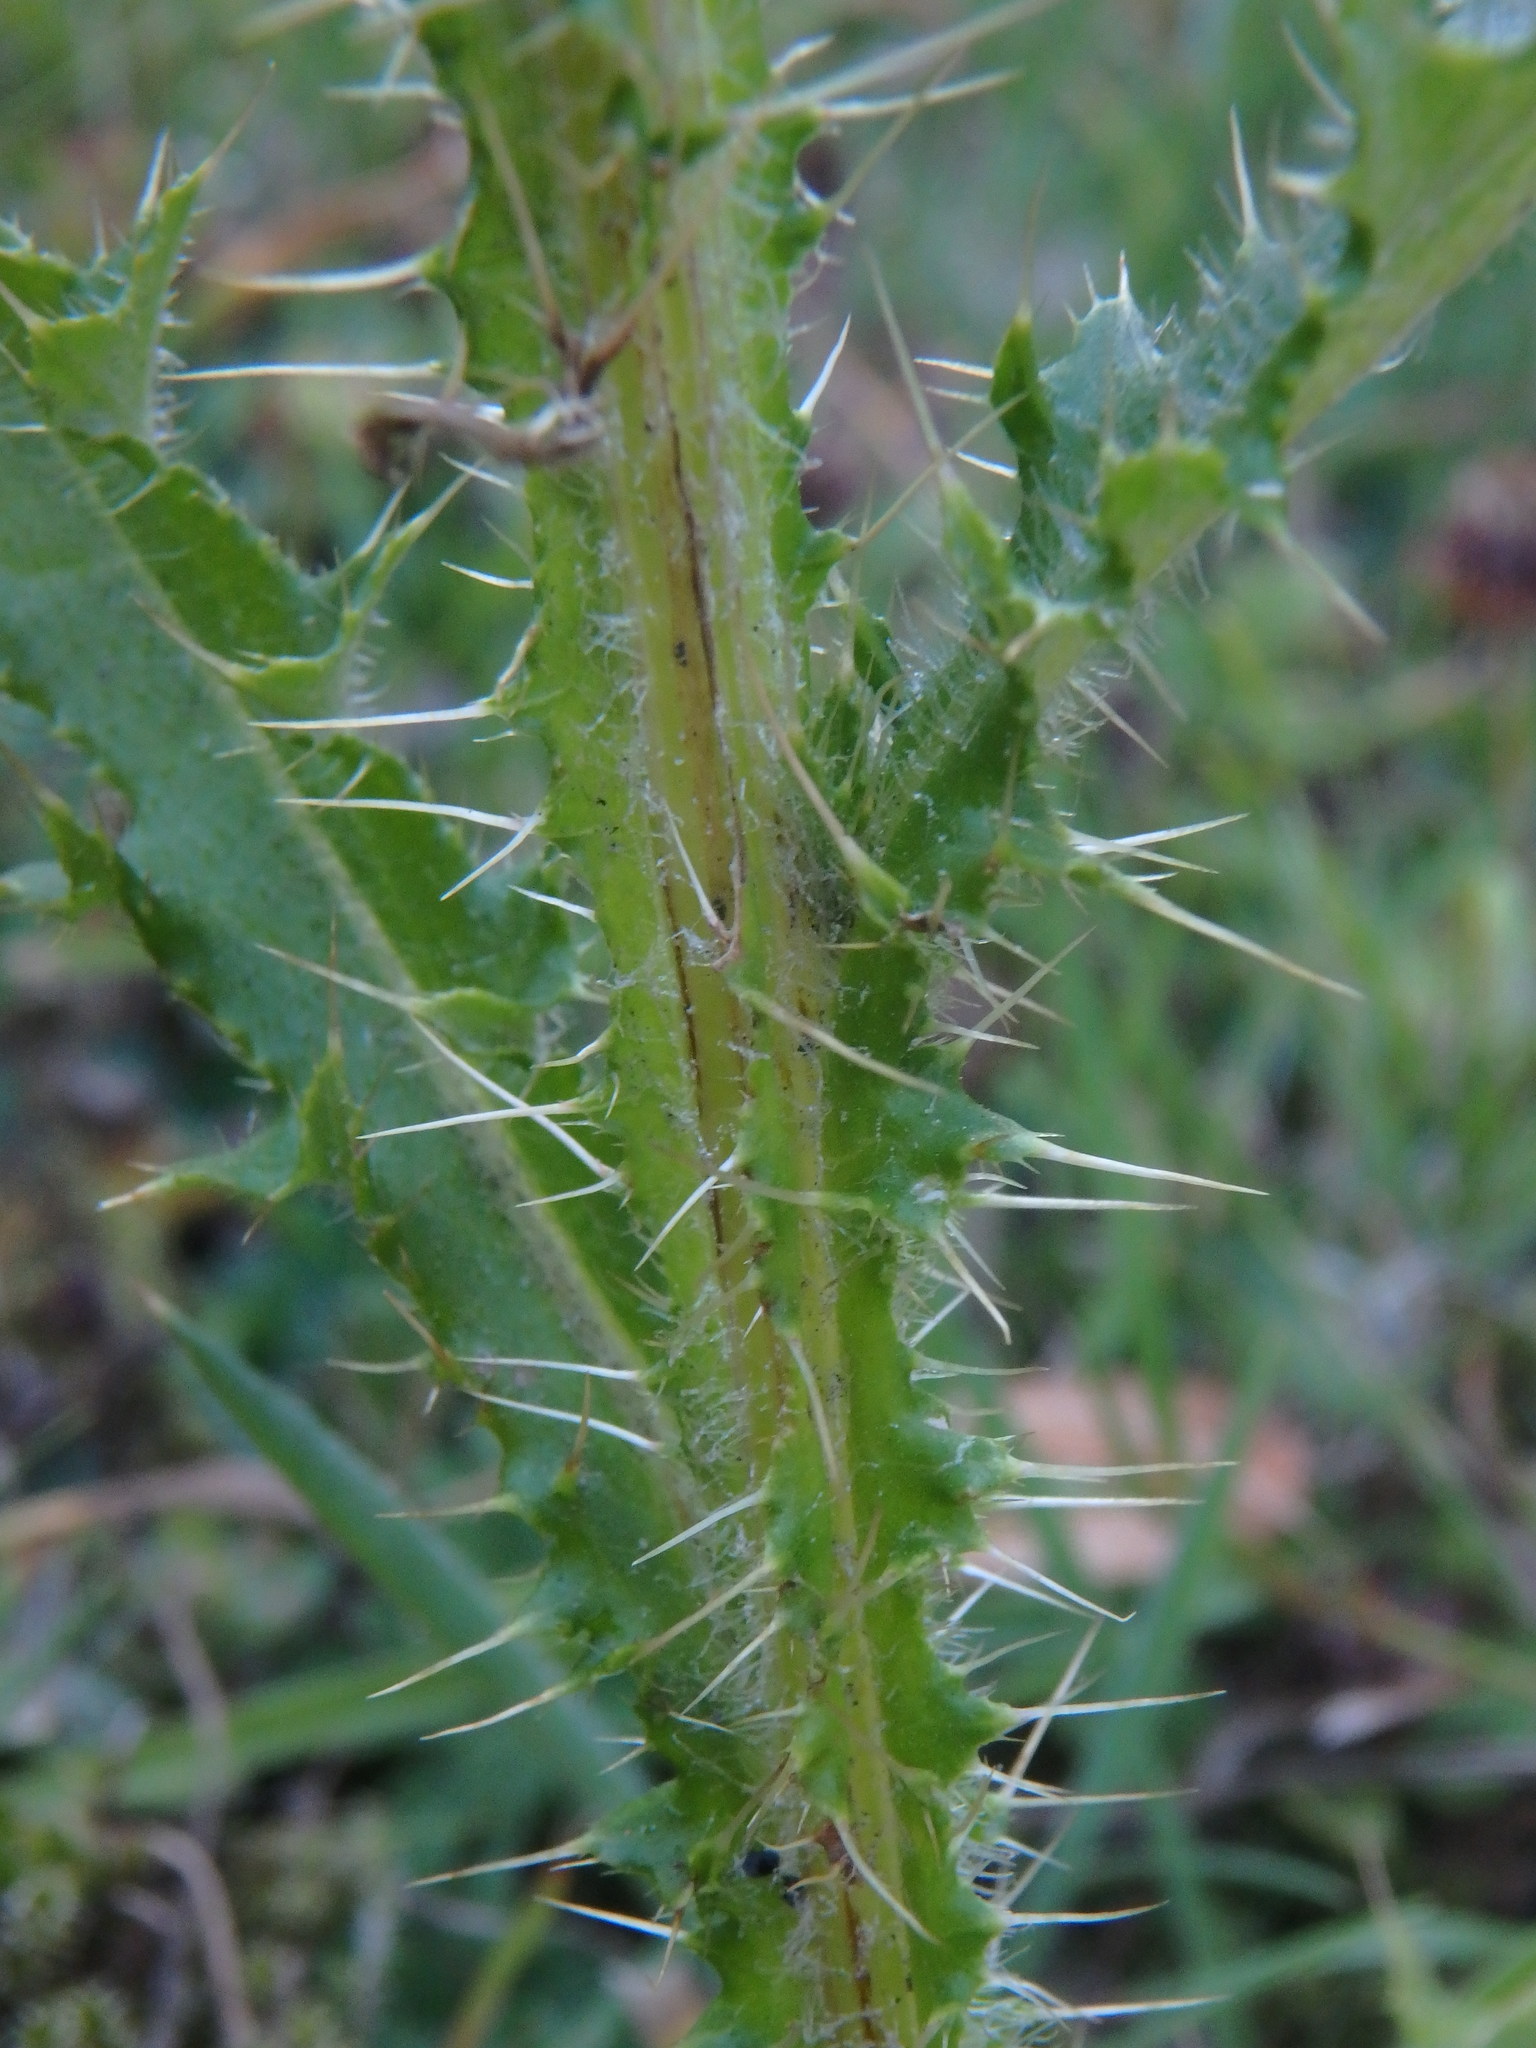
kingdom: Plantae
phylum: Tracheophyta
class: Magnoliopsida
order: Asterales
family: Asteraceae
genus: Cirsium
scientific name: Cirsium palustre
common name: Marsh thistle
